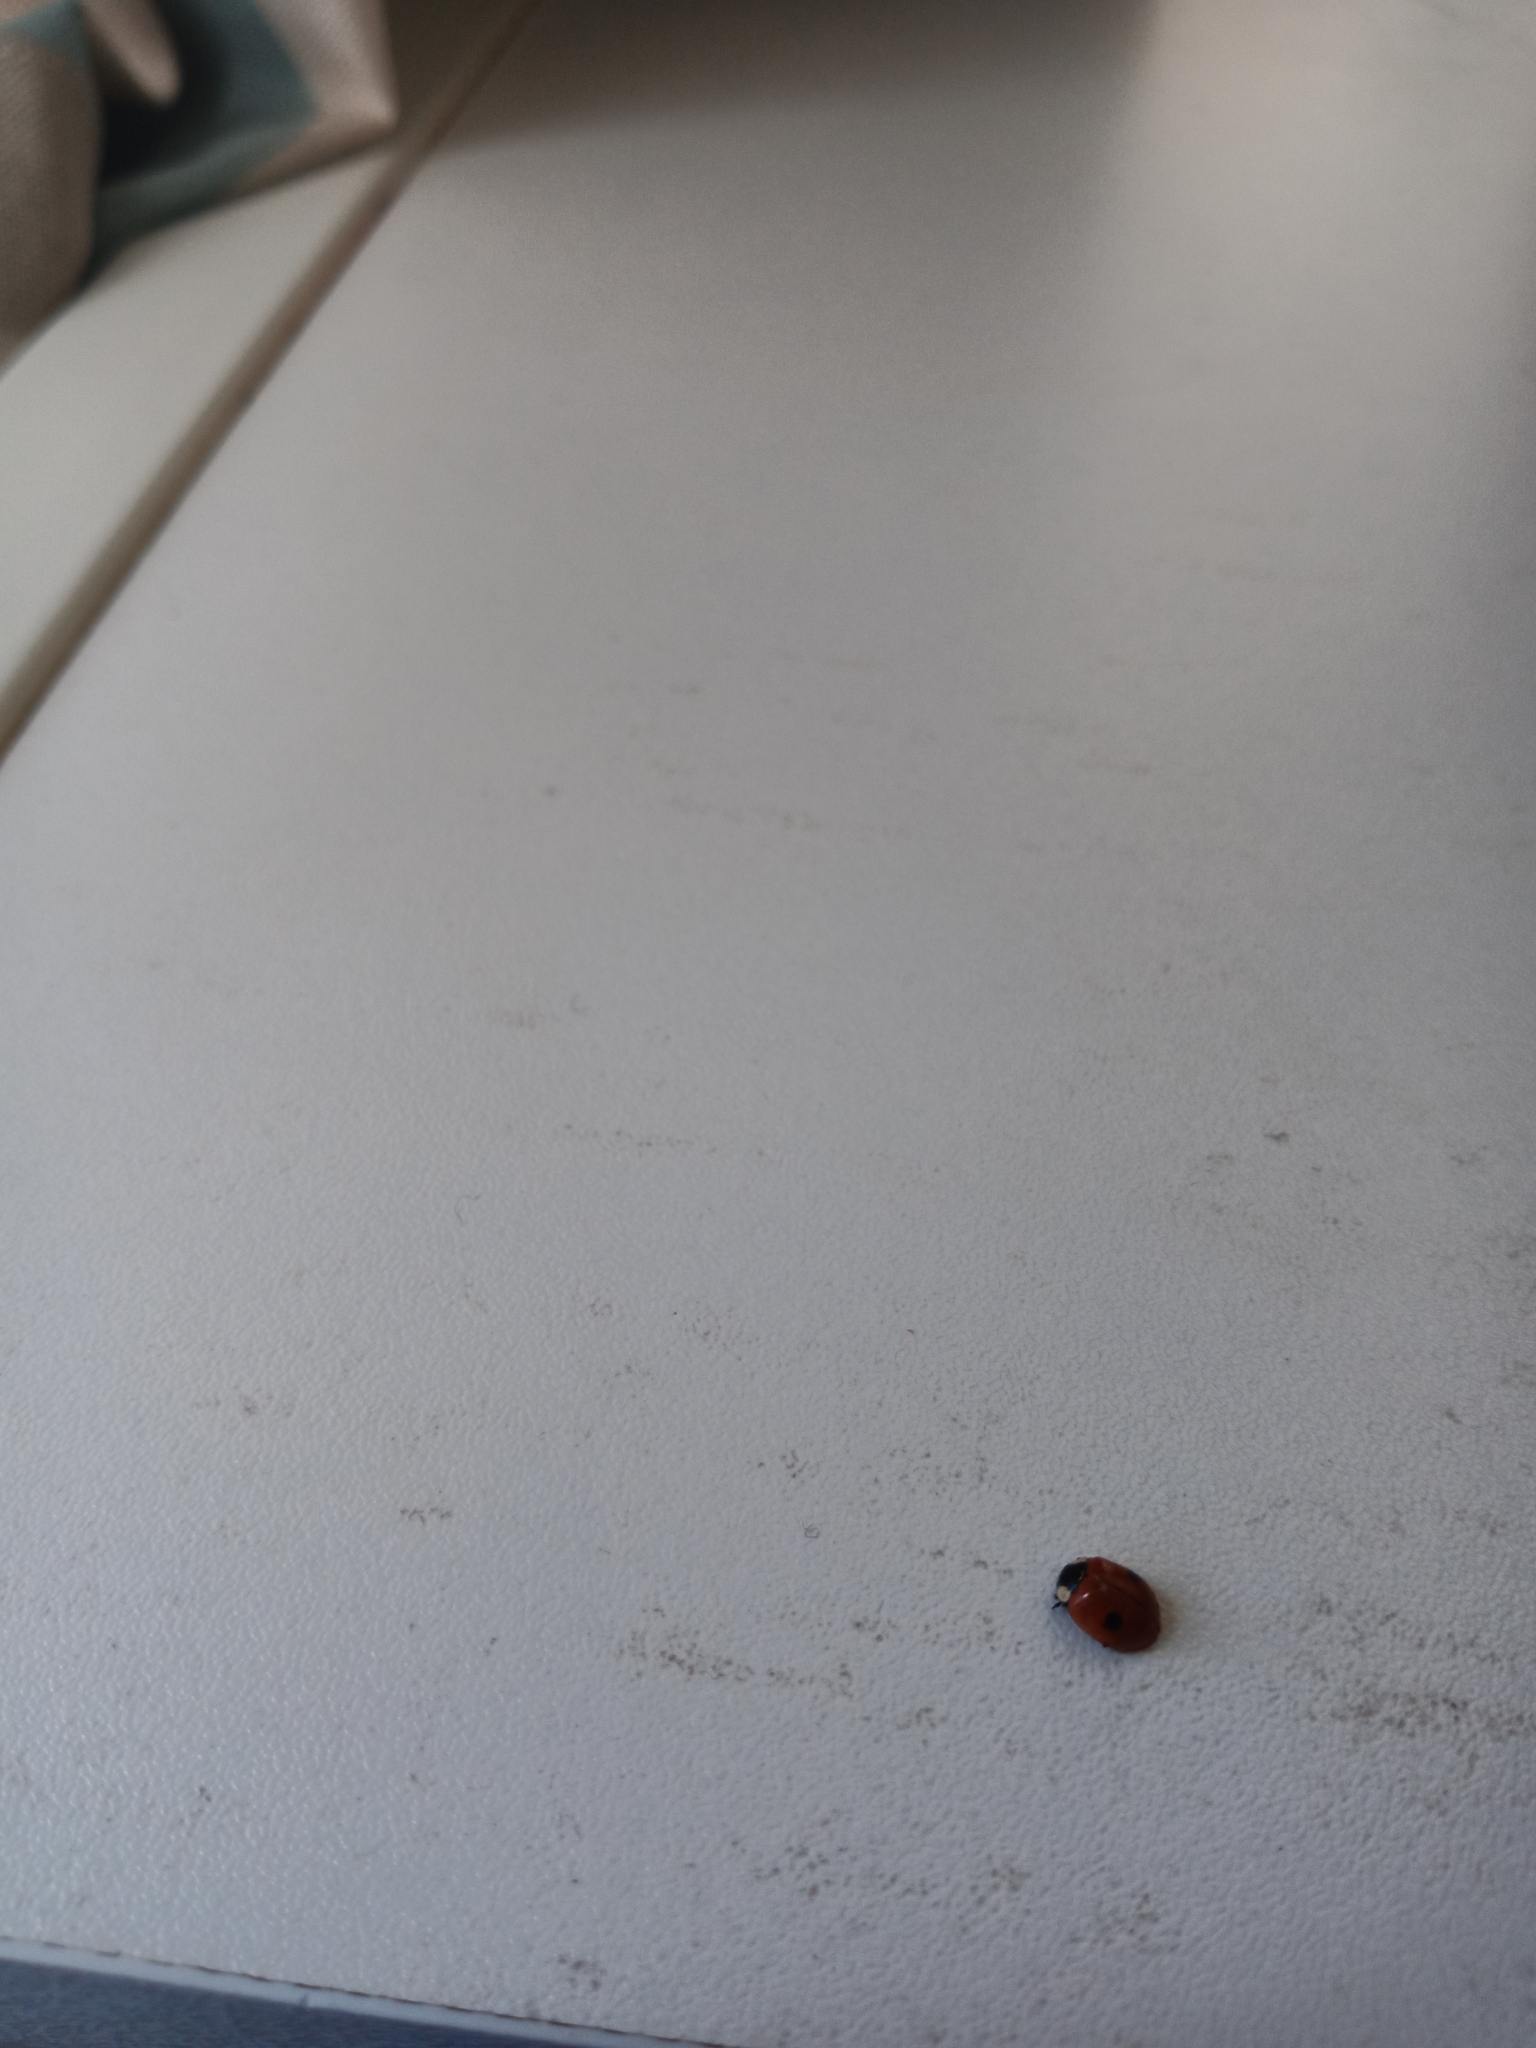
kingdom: Animalia
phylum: Arthropoda
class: Insecta
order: Coleoptera
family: Coccinellidae
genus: Adalia
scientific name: Adalia bipunctata
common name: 2-spot ladybird
